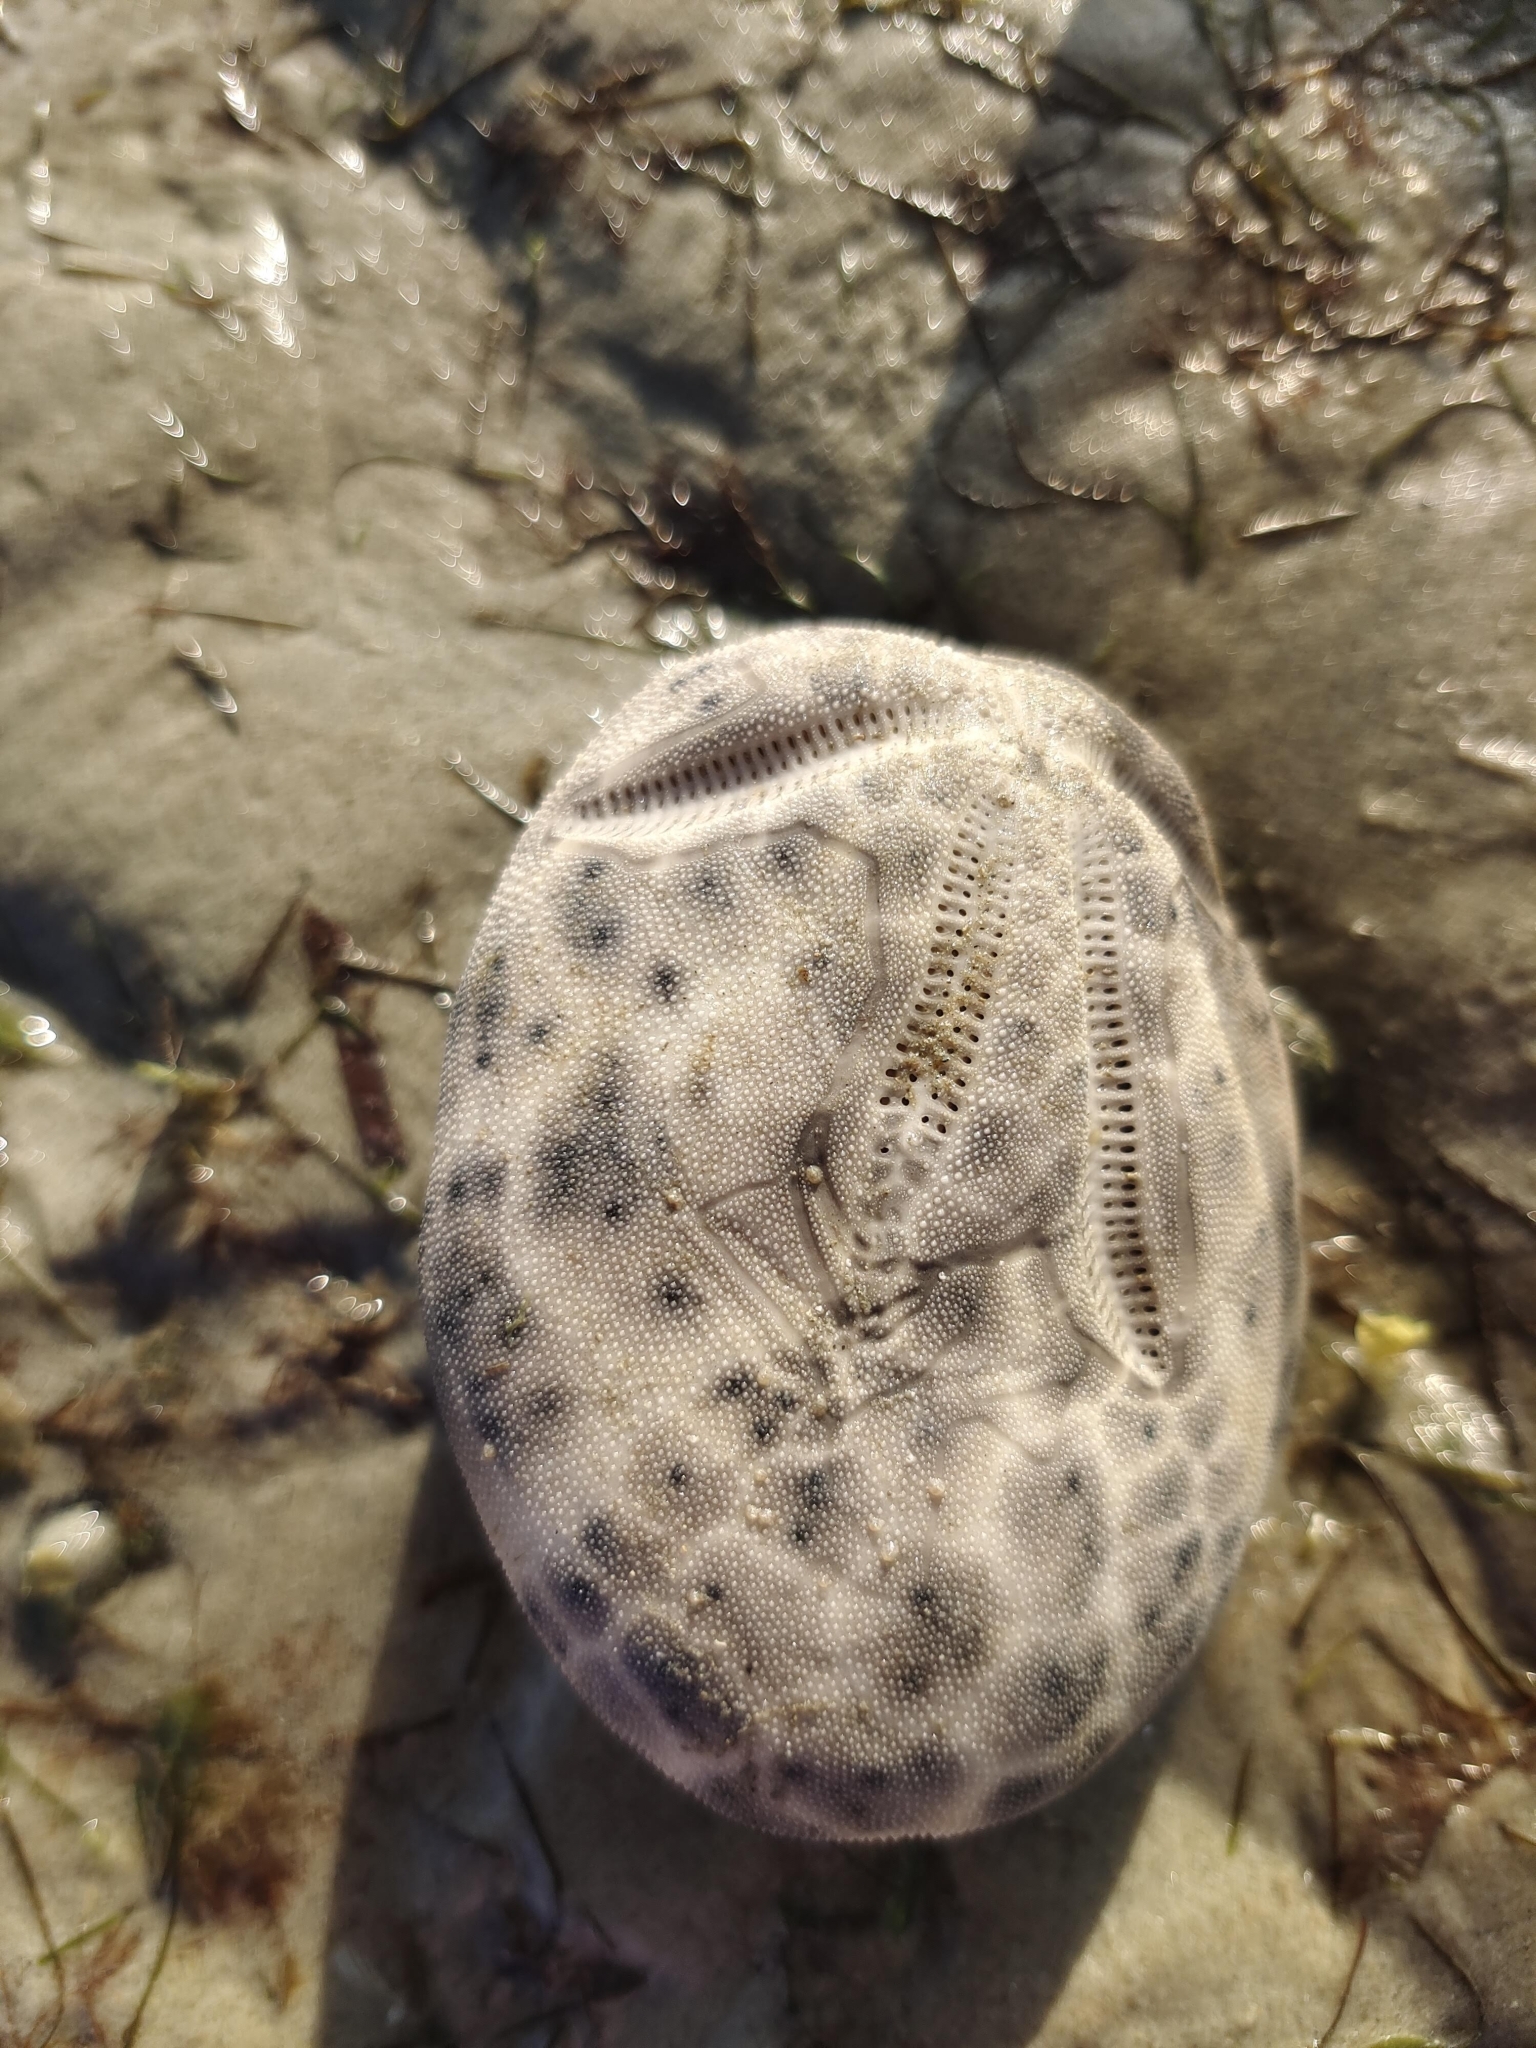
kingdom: Animalia
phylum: Echinodermata
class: Echinoidea
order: Spatangoida
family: Brissidae
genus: Brissus
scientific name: Brissus latecarinatus
